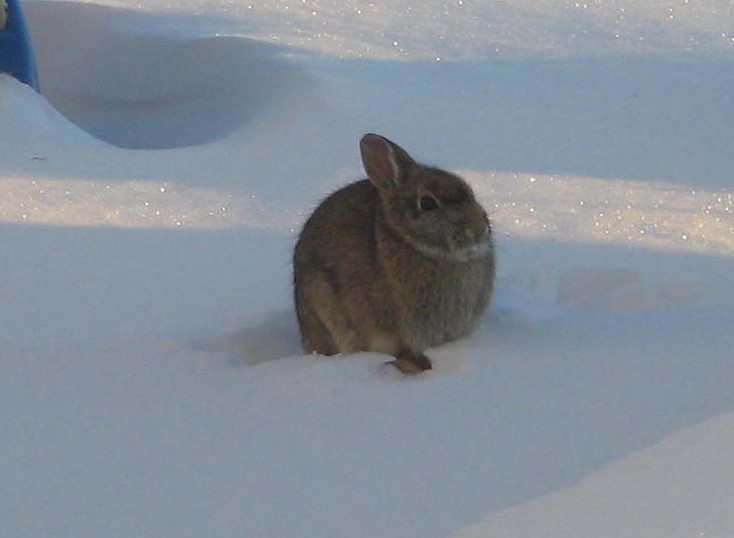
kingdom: Animalia
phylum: Chordata
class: Mammalia
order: Lagomorpha
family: Leporidae
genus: Sylvilagus
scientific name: Sylvilagus floridanus
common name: Eastern cottontail
